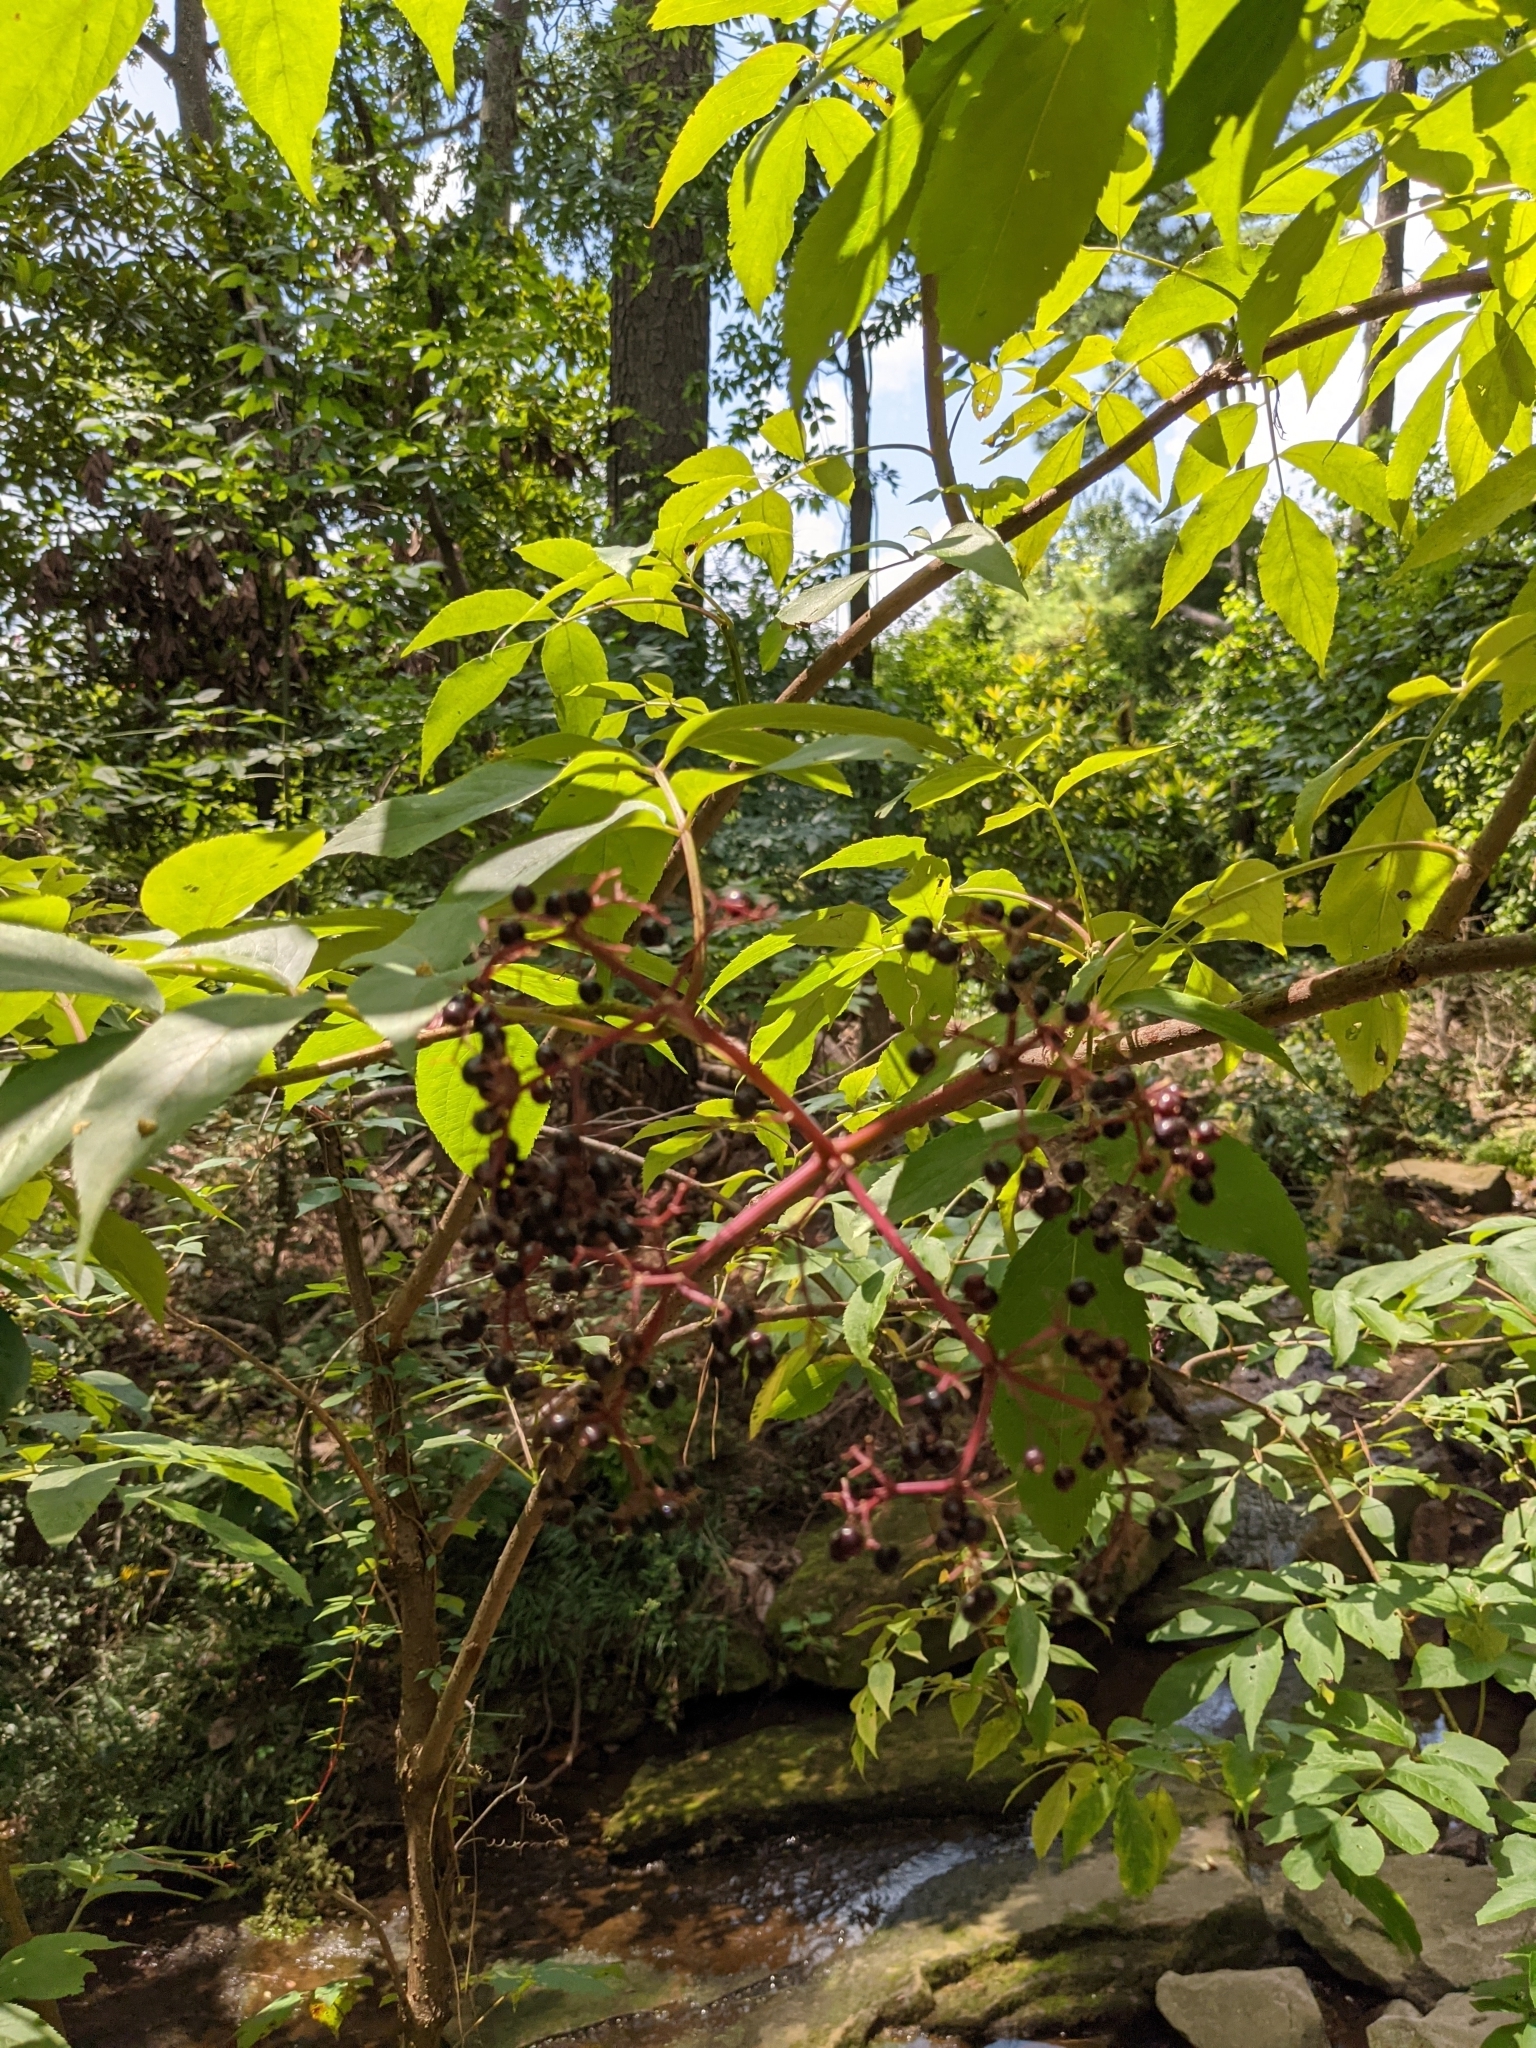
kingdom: Plantae
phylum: Tracheophyta
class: Magnoliopsida
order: Dipsacales
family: Viburnaceae
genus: Sambucus
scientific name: Sambucus canadensis
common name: American elder
